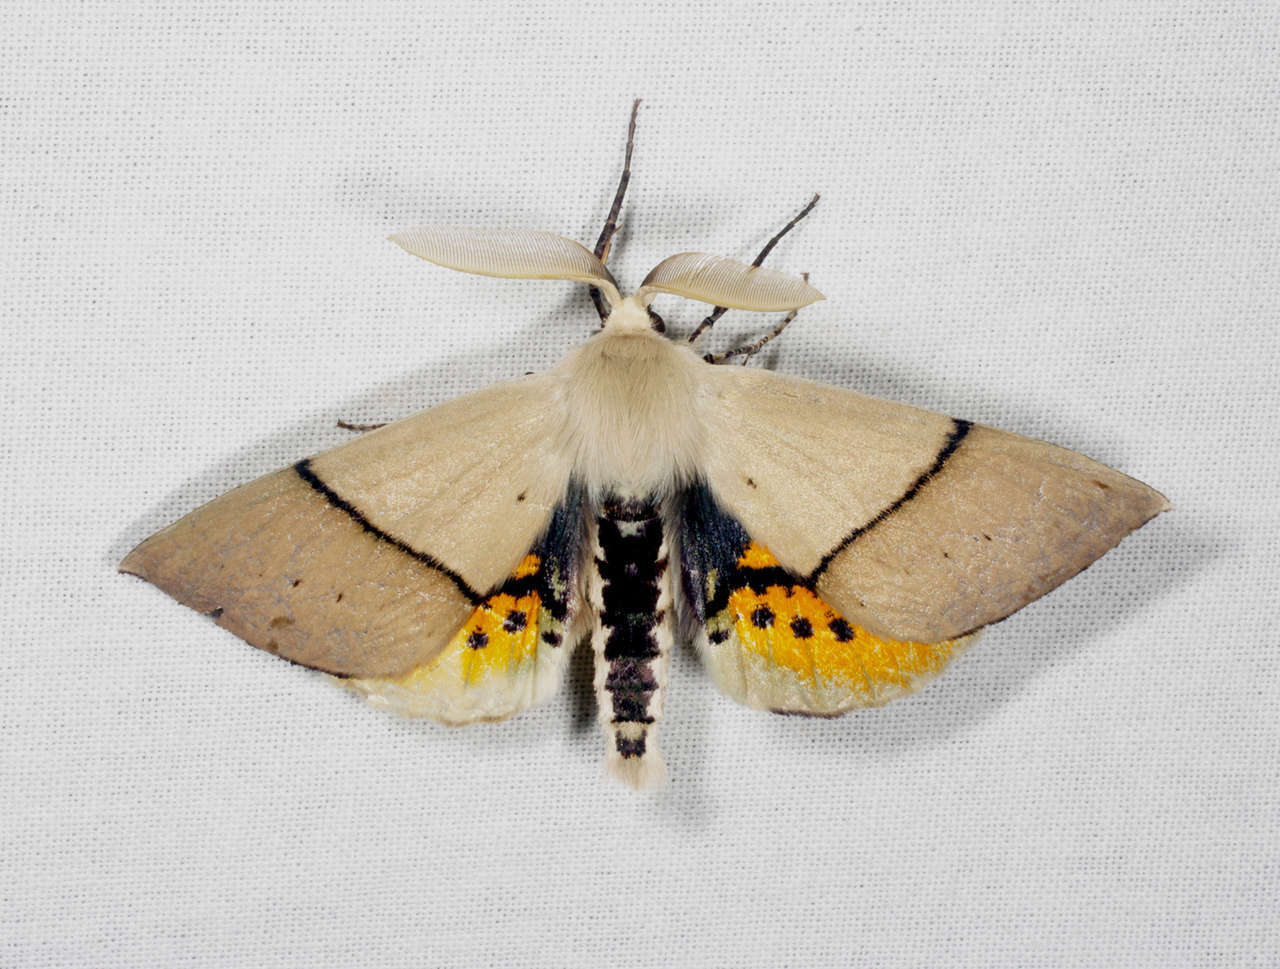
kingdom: Animalia
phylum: Arthropoda
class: Insecta
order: Lepidoptera
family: Geometridae
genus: Gastrophora
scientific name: Gastrophora henricaria
